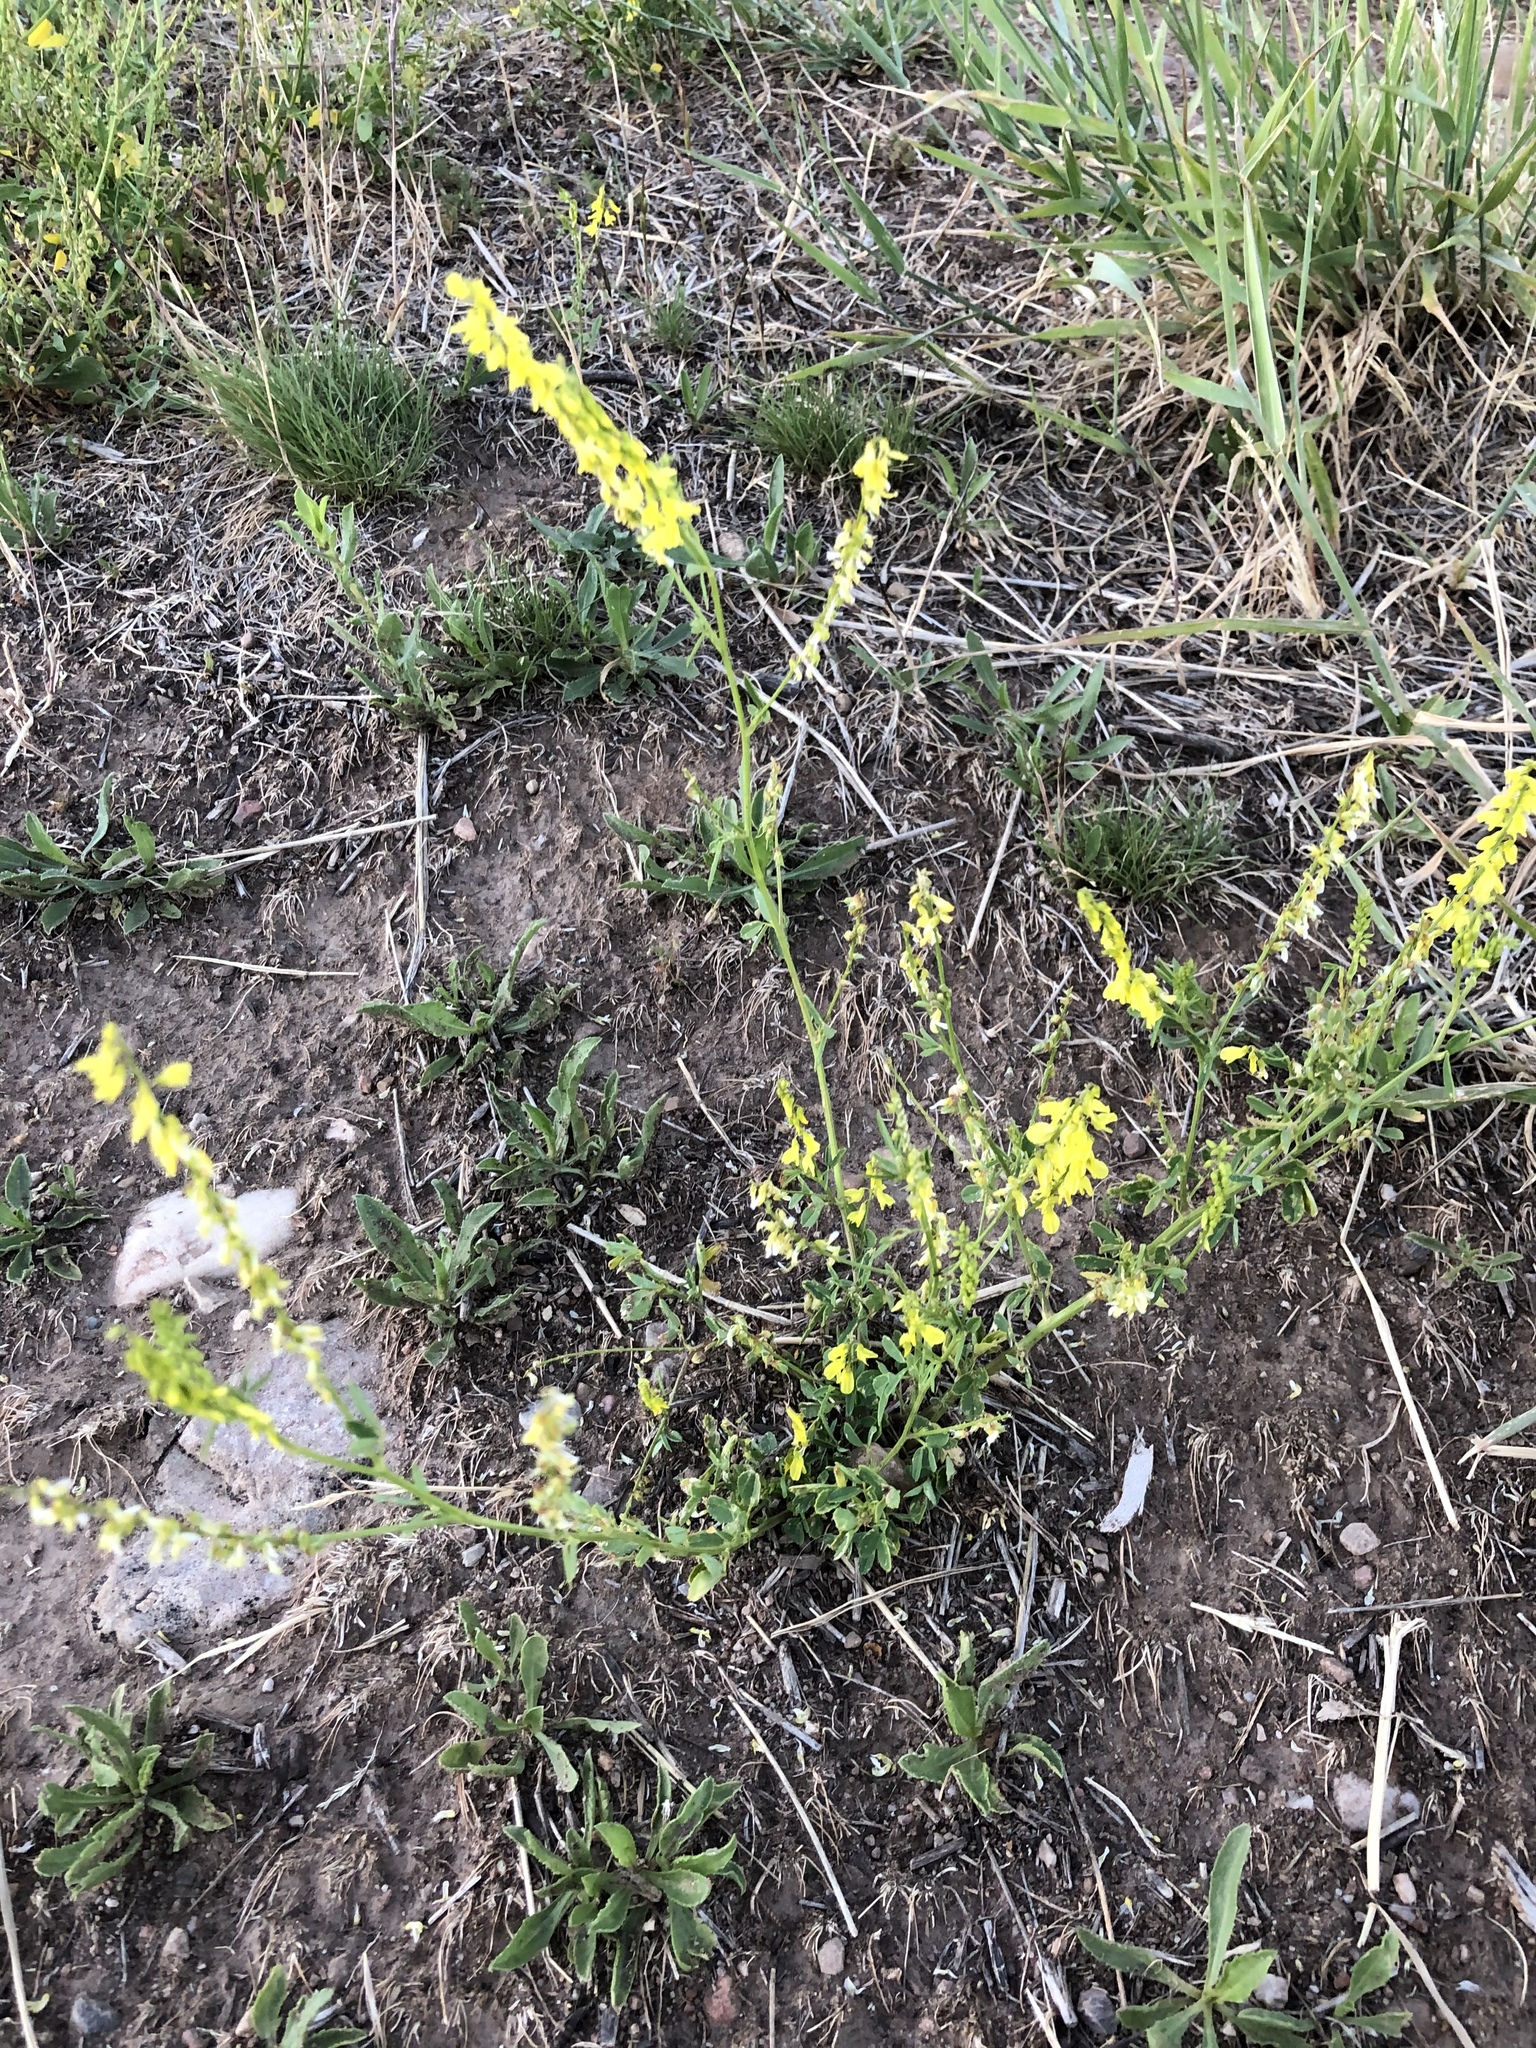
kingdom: Plantae
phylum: Tracheophyta
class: Magnoliopsida
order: Fabales
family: Fabaceae
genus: Melilotus
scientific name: Melilotus officinalis
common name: Sweetclover
